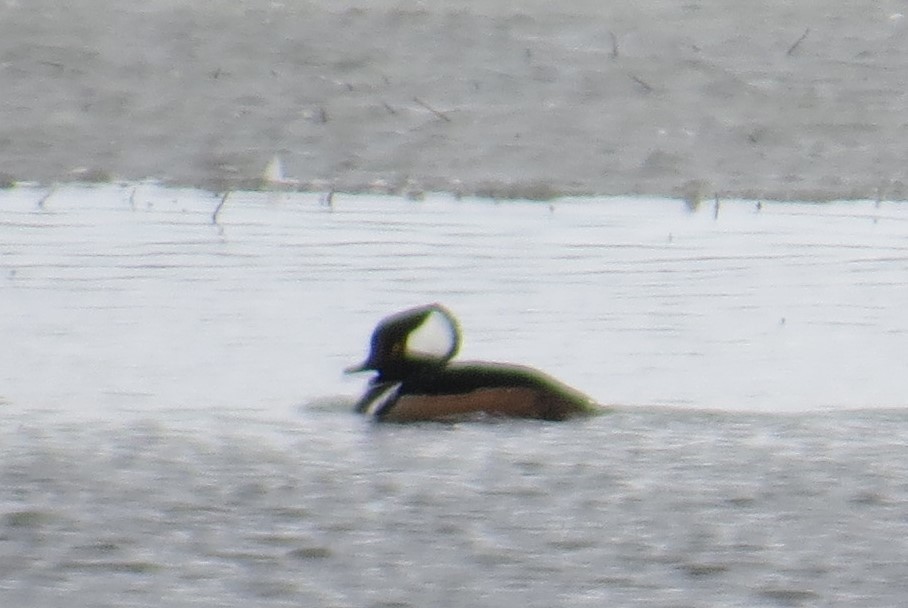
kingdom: Animalia
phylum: Chordata
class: Aves
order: Anseriformes
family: Anatidae
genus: Lophodytes
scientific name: Lophodytes cucullatus
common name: Hooded merganser
